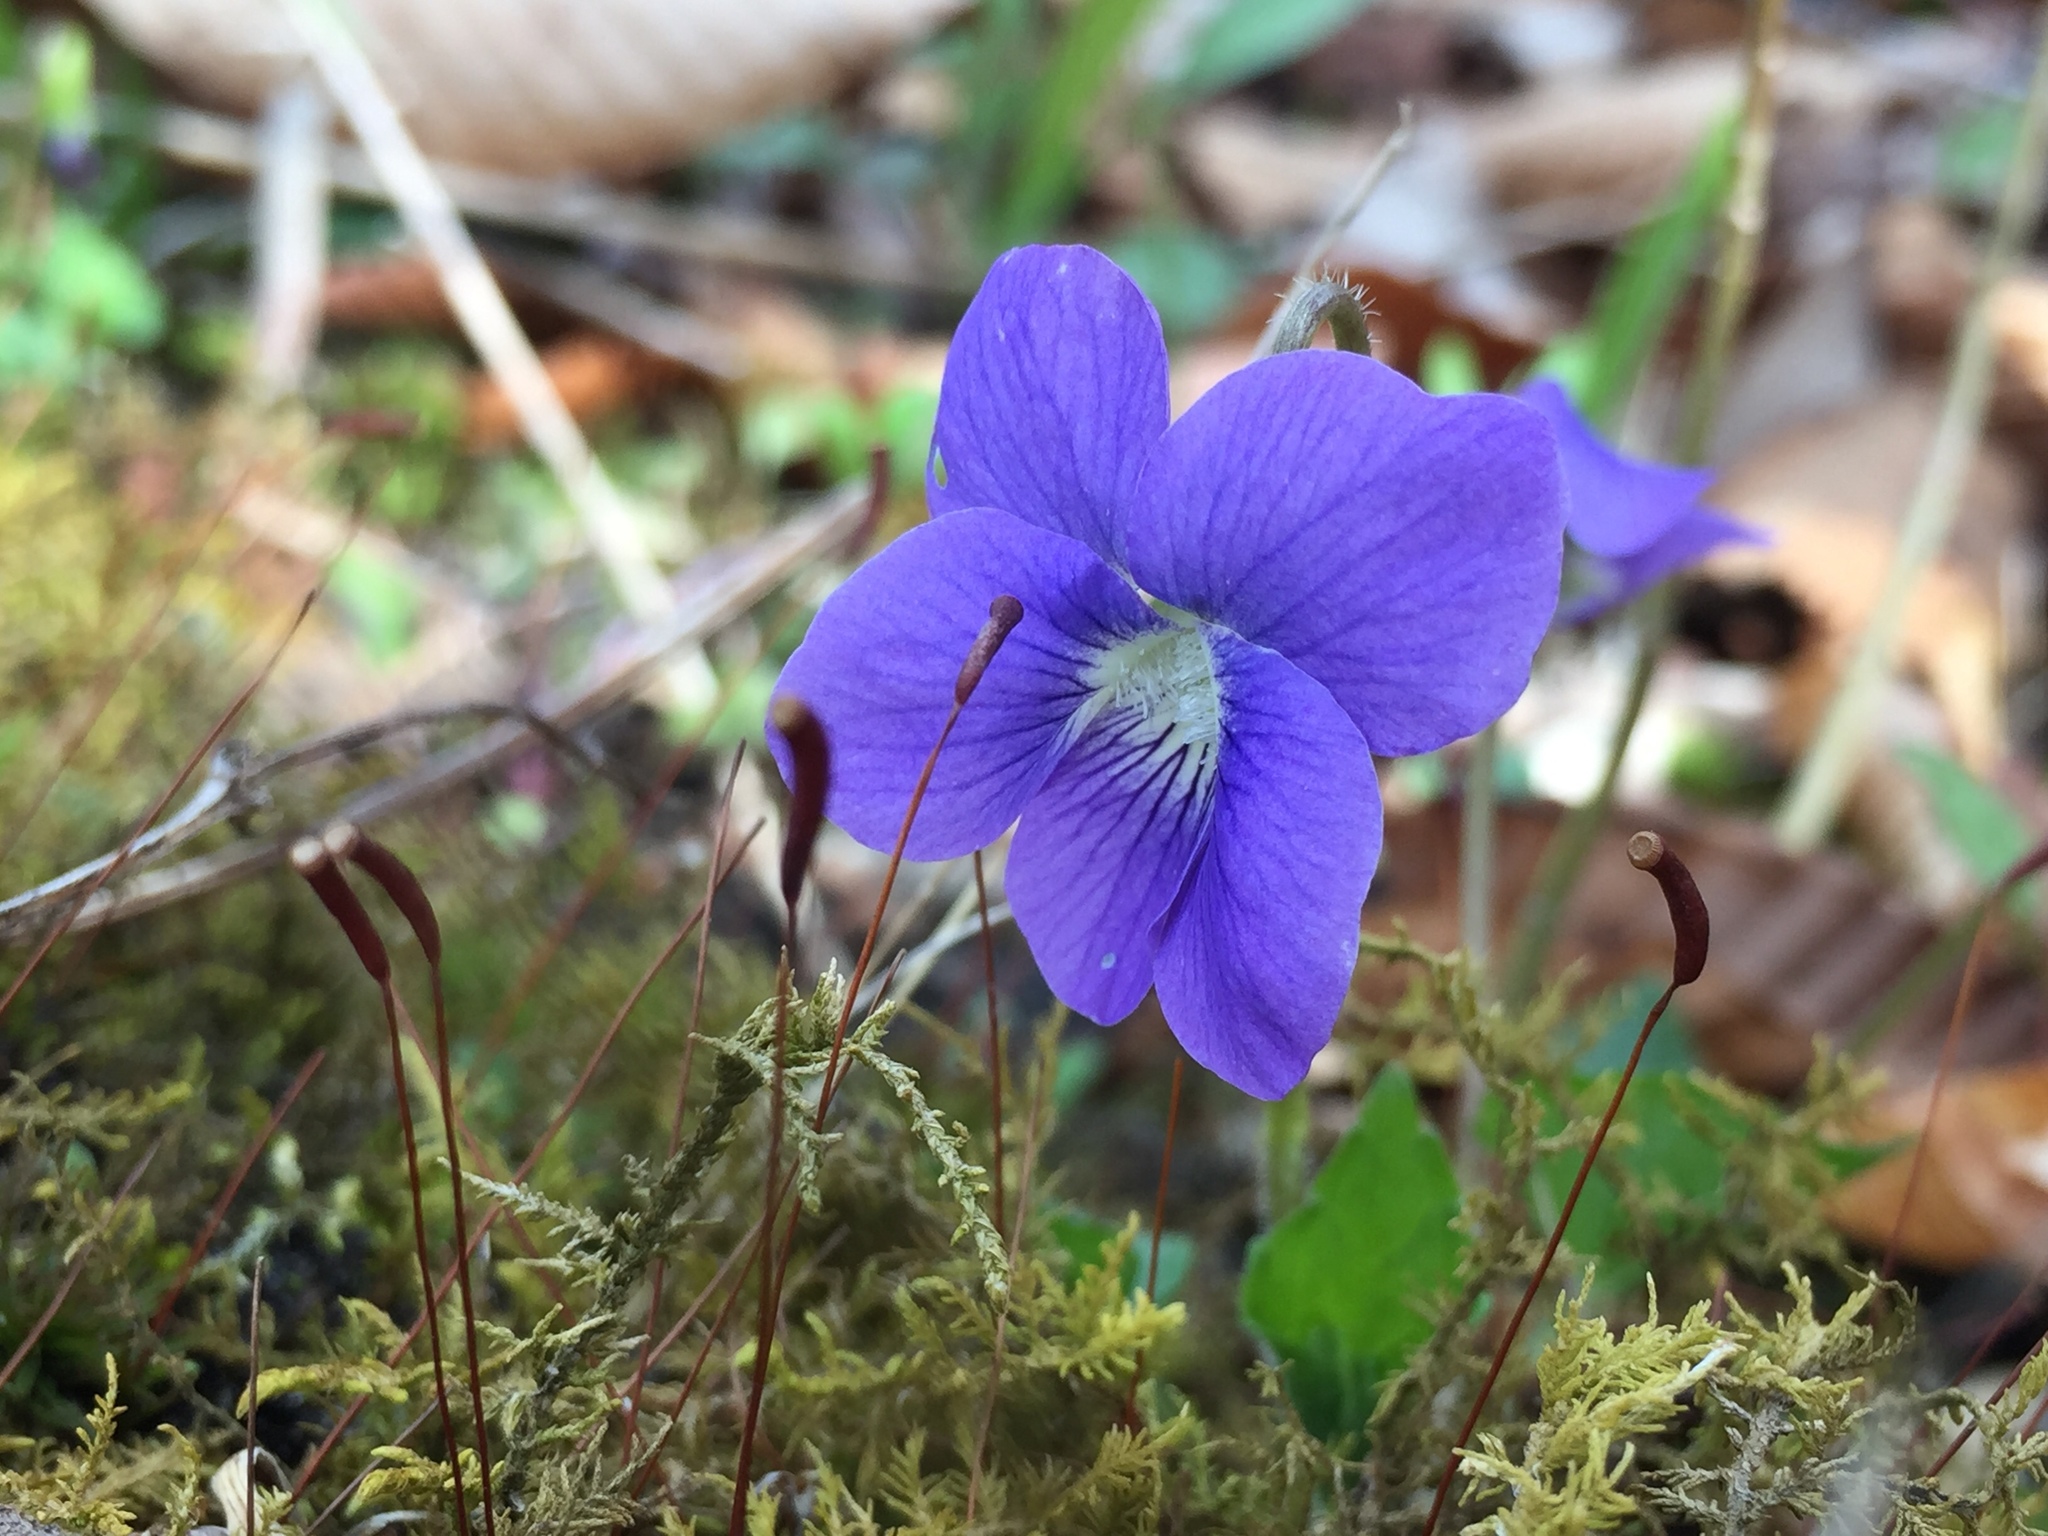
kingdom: Plantae
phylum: Tracheophyta
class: Magnoliopsida
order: Malpighiales
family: Violaceae
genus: Viola
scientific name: Viola sororia
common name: Dooryard violet
